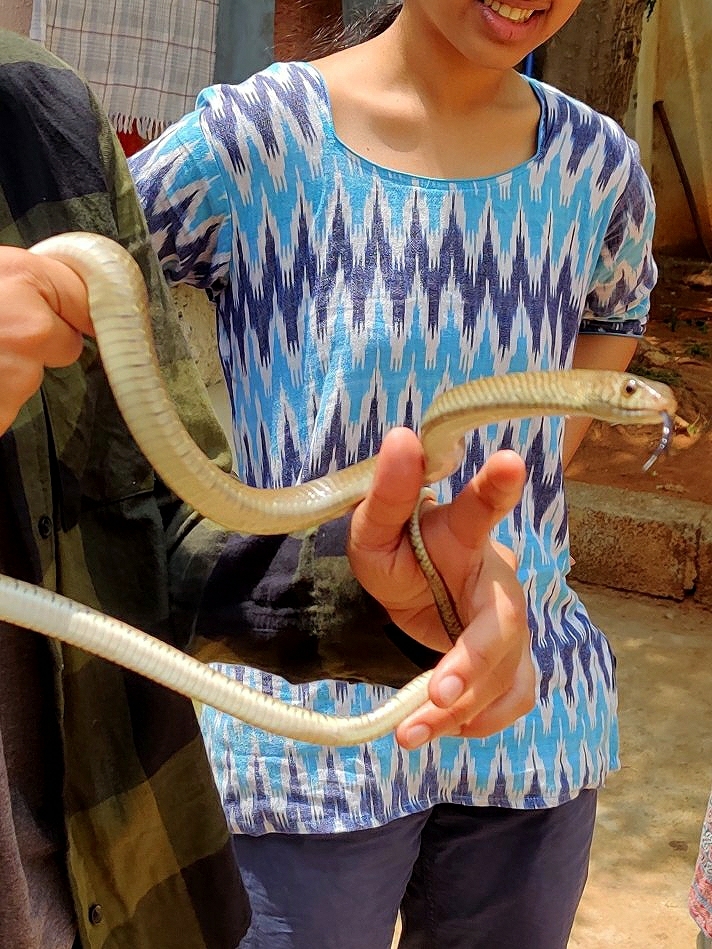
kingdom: Animalia
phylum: Chordata
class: Squamata
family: Colubridae
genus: Ptyas
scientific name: Ptyas mucosa
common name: Oriental ratsnake
